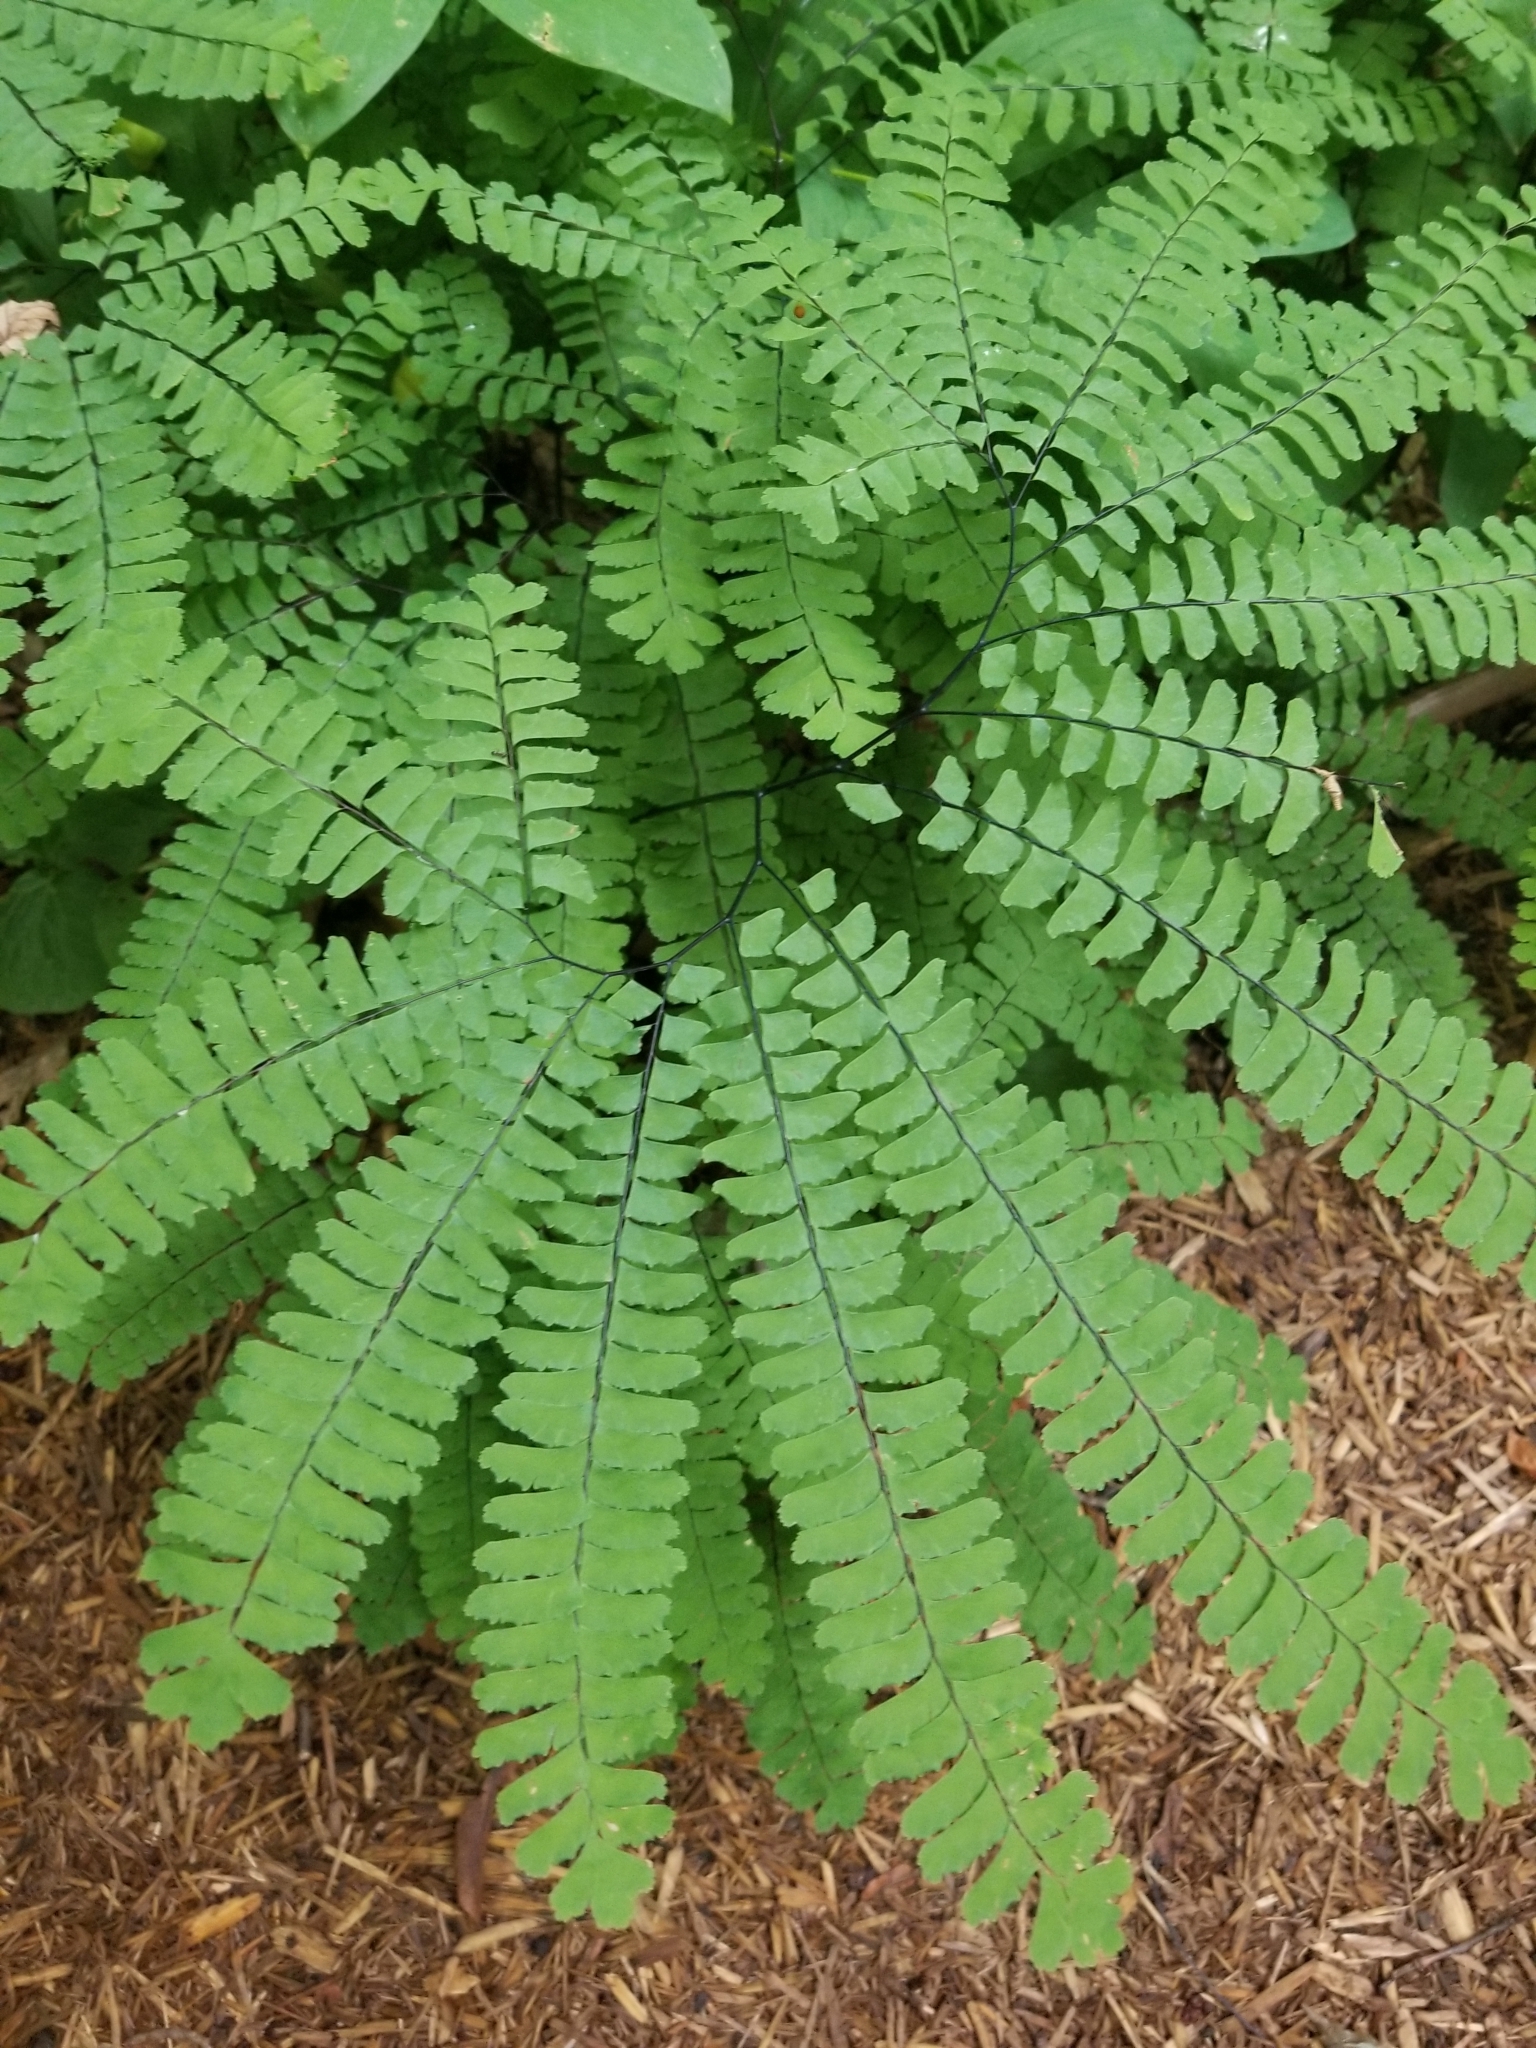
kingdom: Plantae
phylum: Tracheophyta
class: Polypodiopsida
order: Polypodiales
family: Pteridaceae
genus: Adiantum
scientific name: Adiantum pedatum
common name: Five-finger fern
